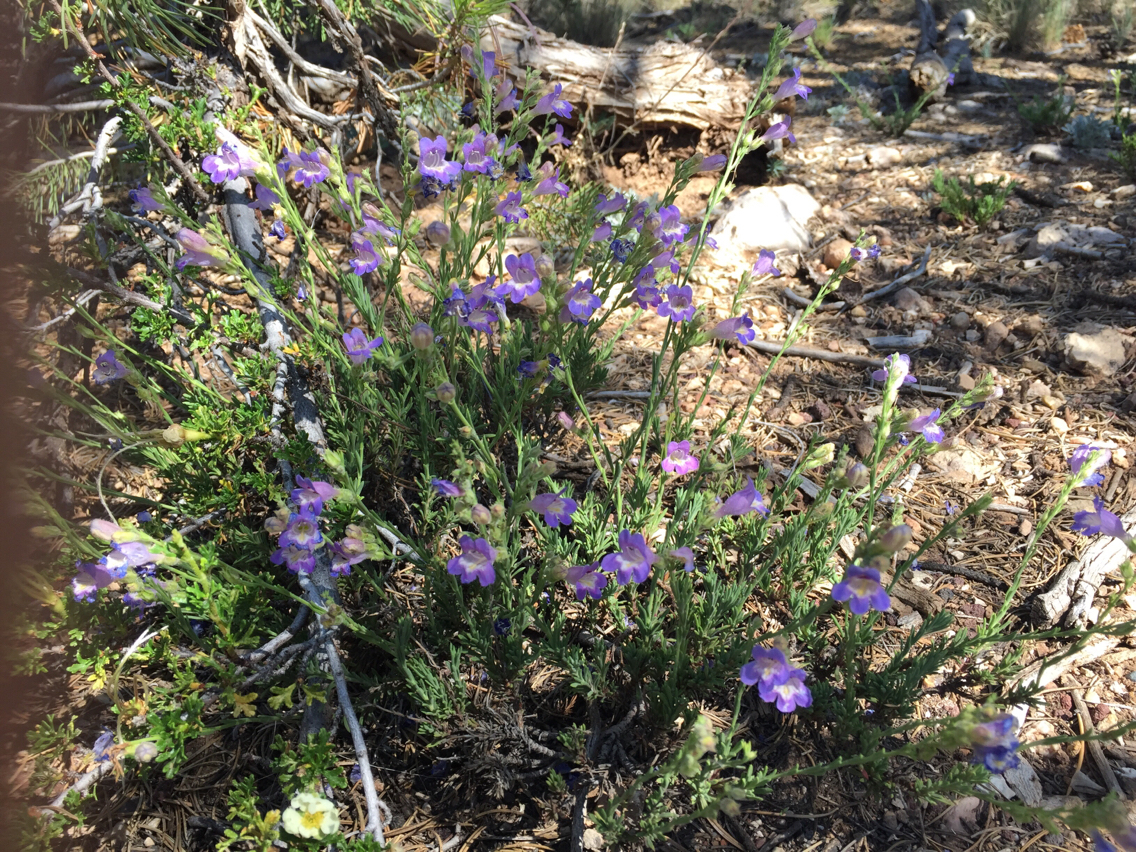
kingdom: Plantae
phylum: Tracheophyta
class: Magnoliopsida
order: Lamiales
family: Plantaginaceae
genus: Penstemon
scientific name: Penstemon linarioides
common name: Siler's penstemon
